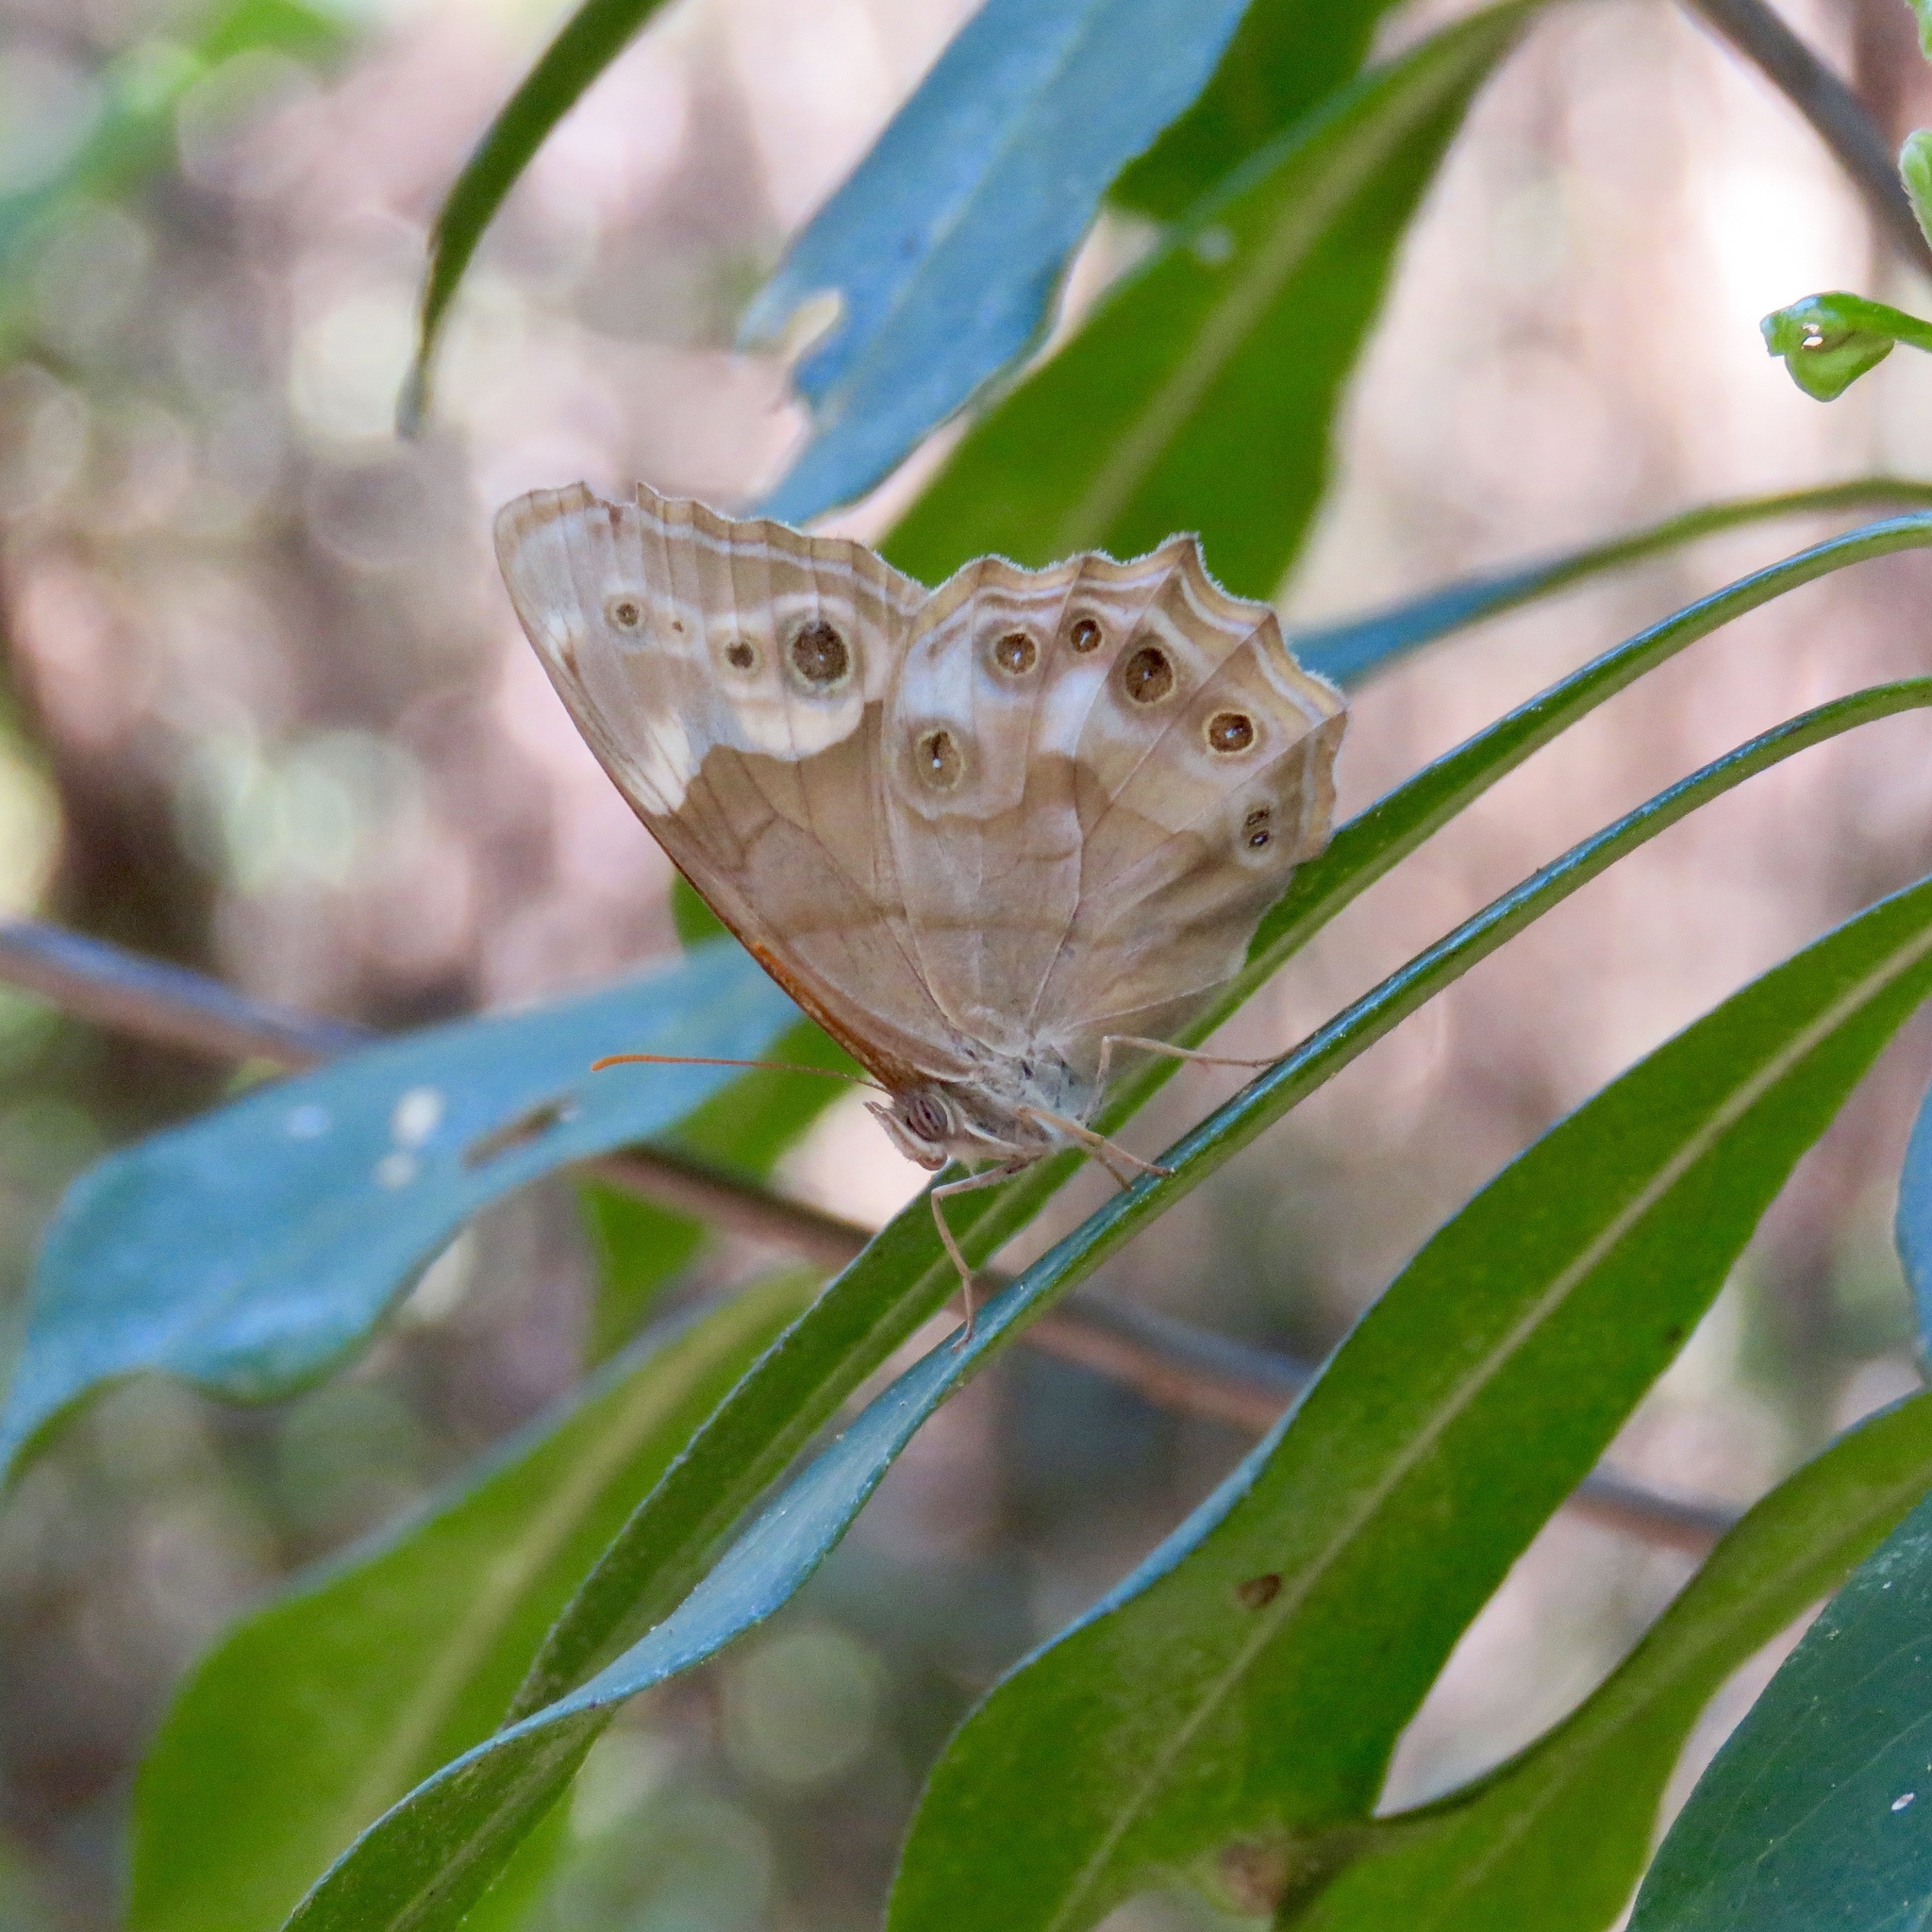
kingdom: Animalia
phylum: Arthropoda
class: Insecta
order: Lepidoptera
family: Nymphalidae
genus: Enodia
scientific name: Enodia portlandia
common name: Southern pearly-eye
